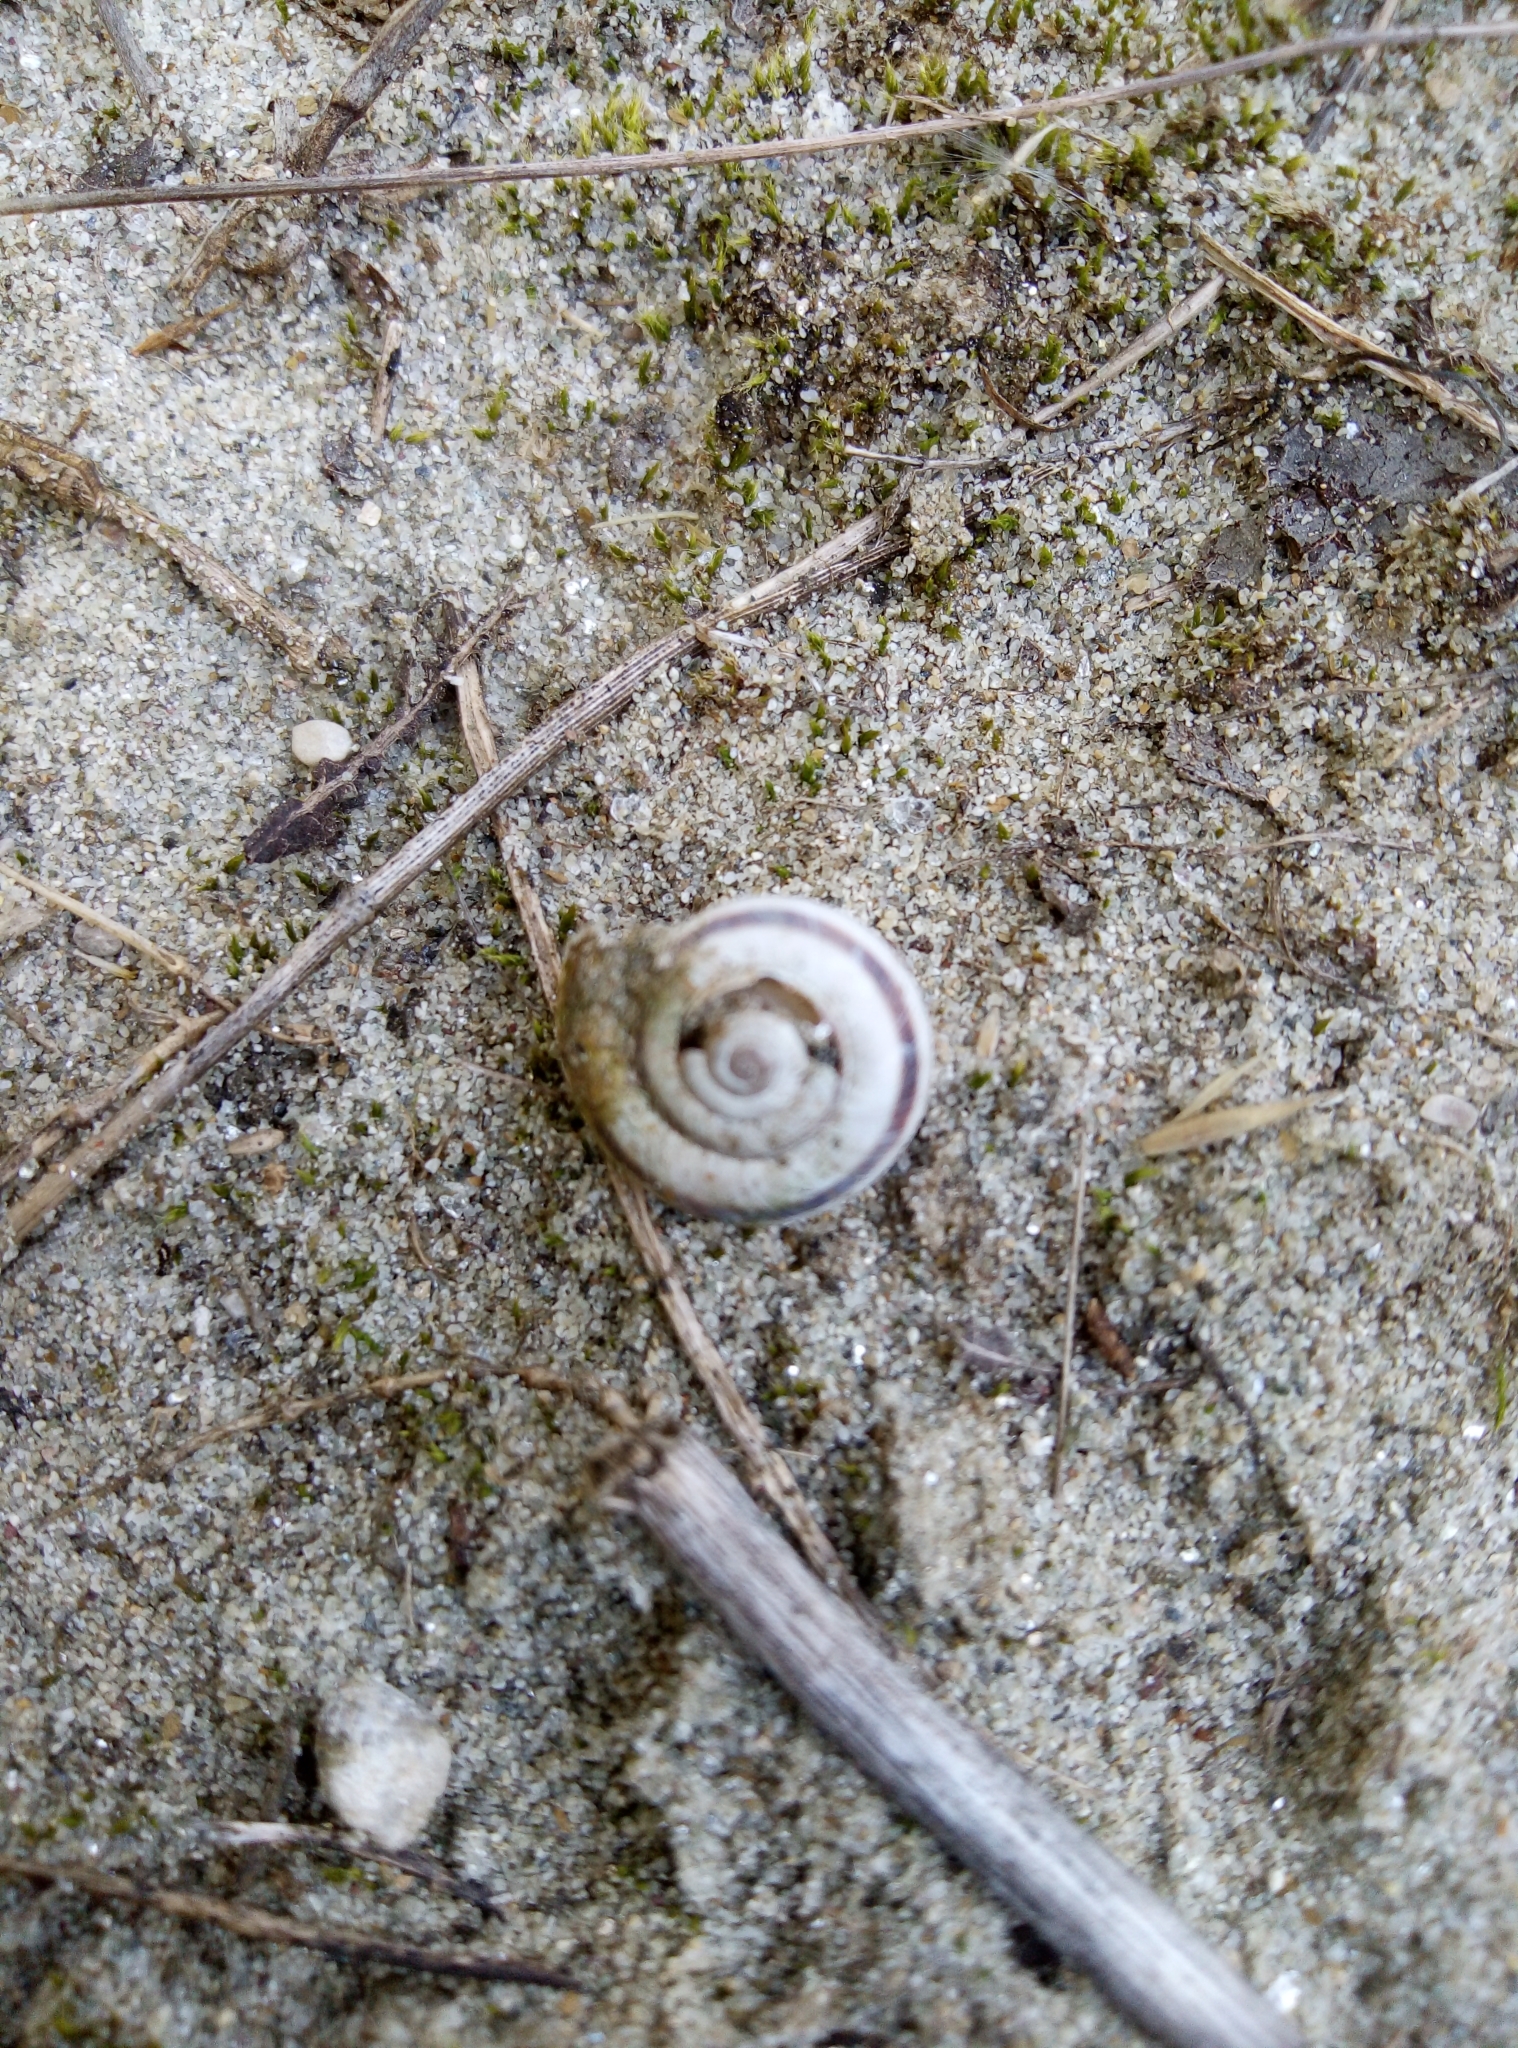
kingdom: Animalia
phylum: Mollusca
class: Gastropoda
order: Stylommatophora
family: Geomitridae
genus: Xerolenta
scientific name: Xerolenta obvia
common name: White heath snail
